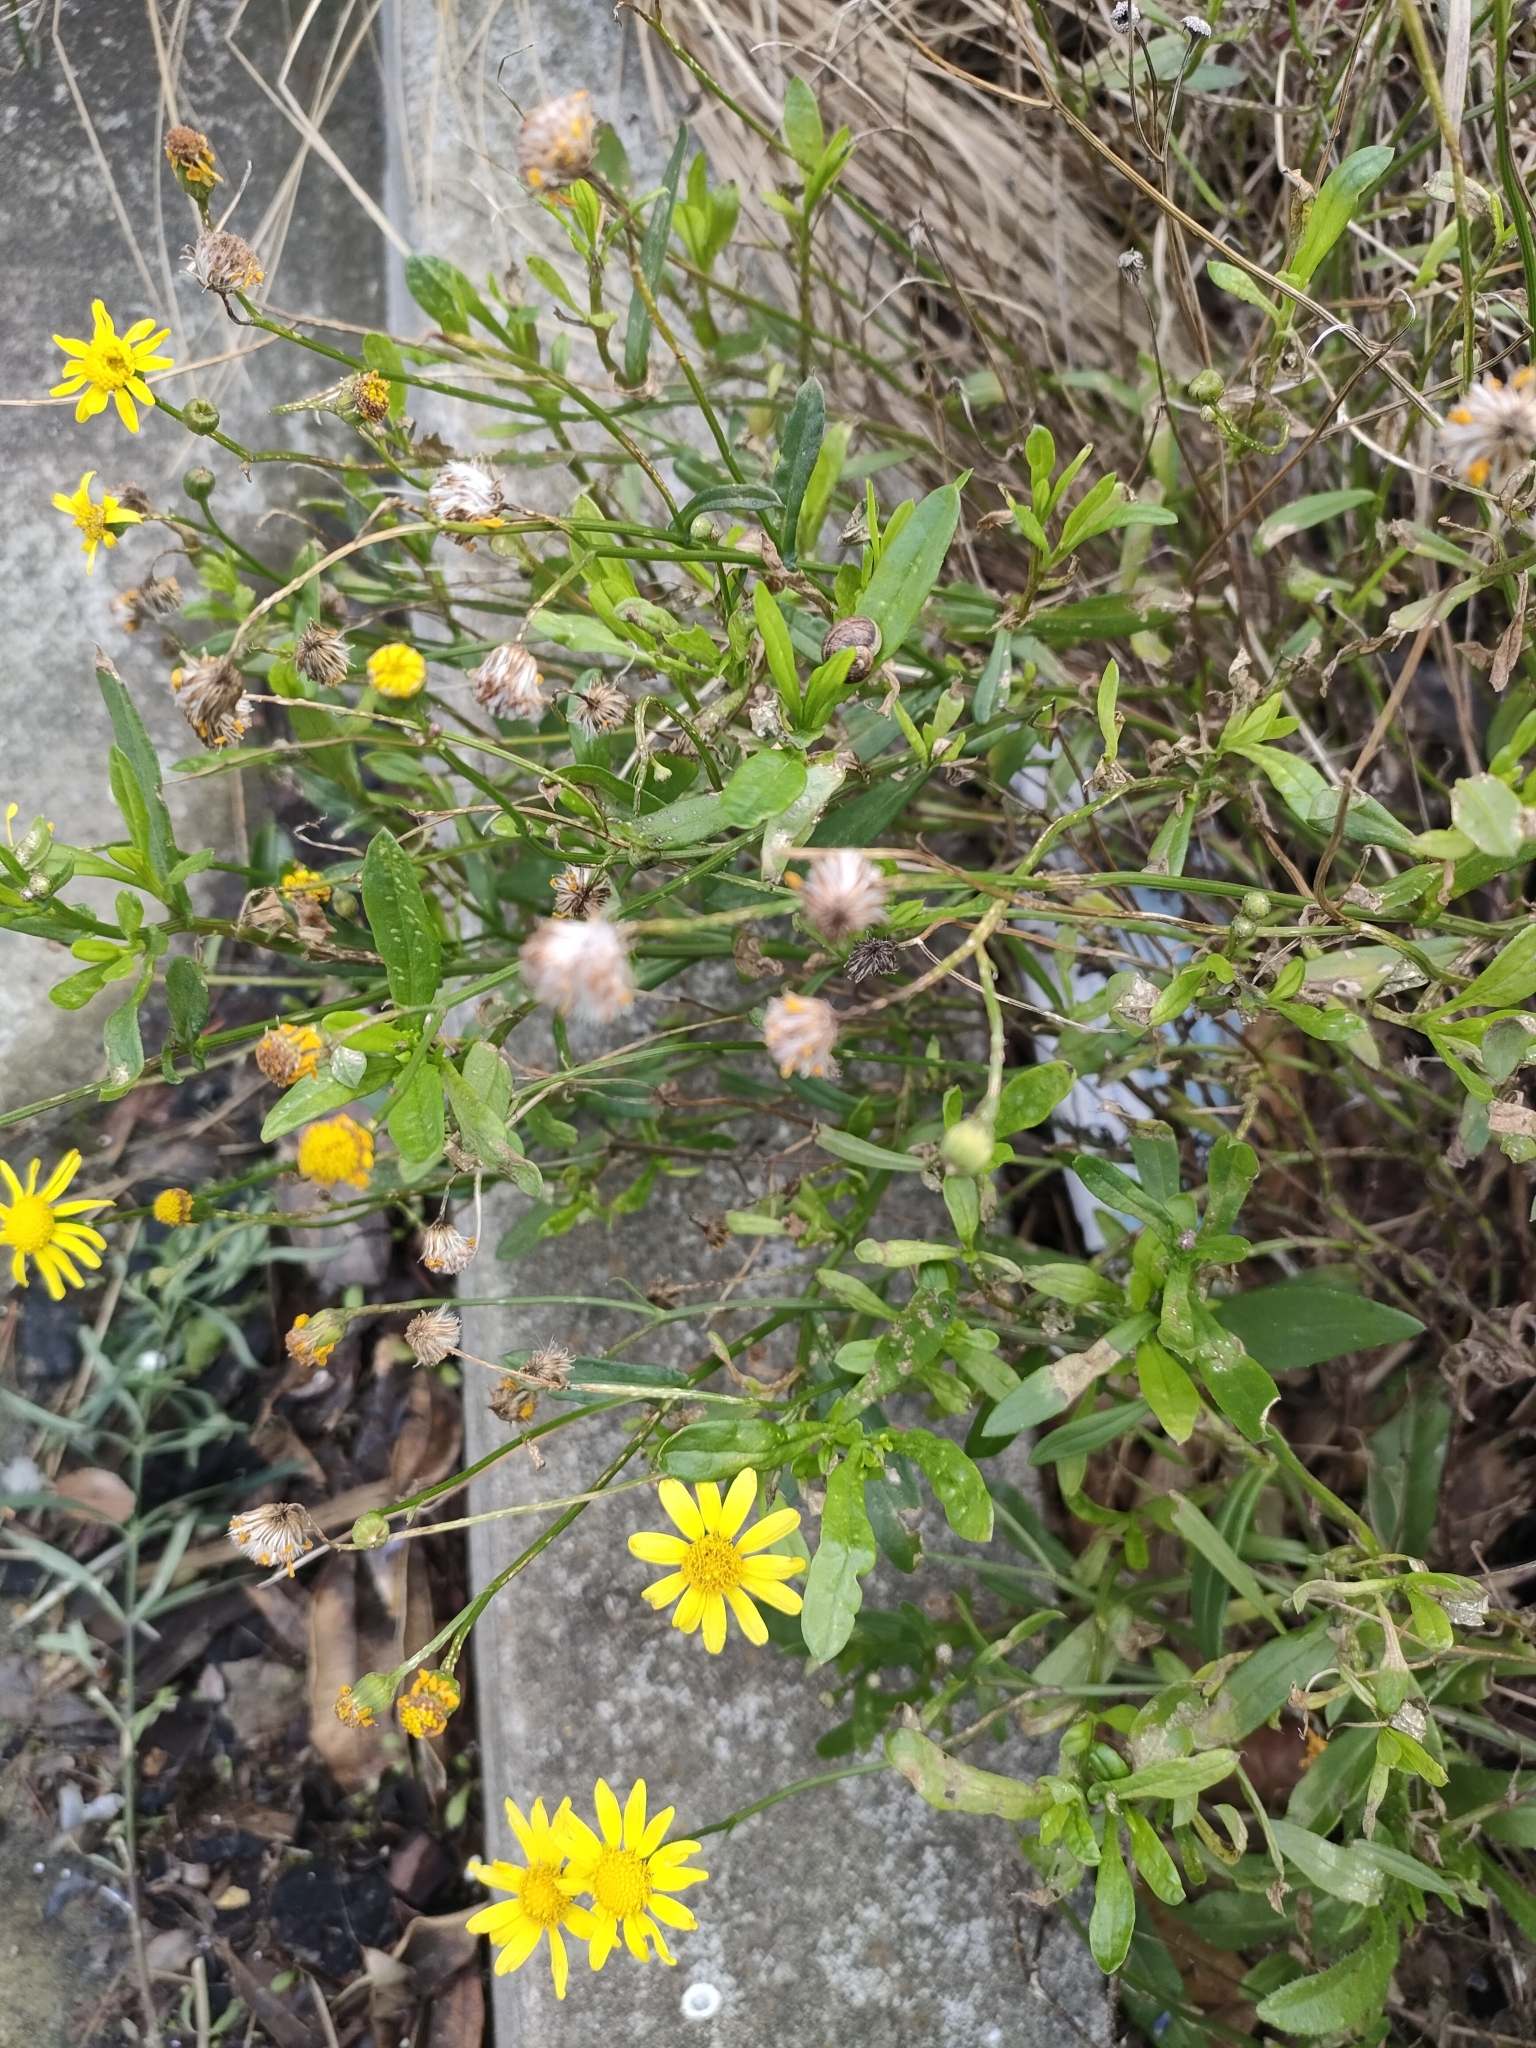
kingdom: Plantae
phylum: Tracheophyta
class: Magnoliopsida
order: Asterales
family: Asteraceae
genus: Senecio
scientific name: Senecio skirrhodon
